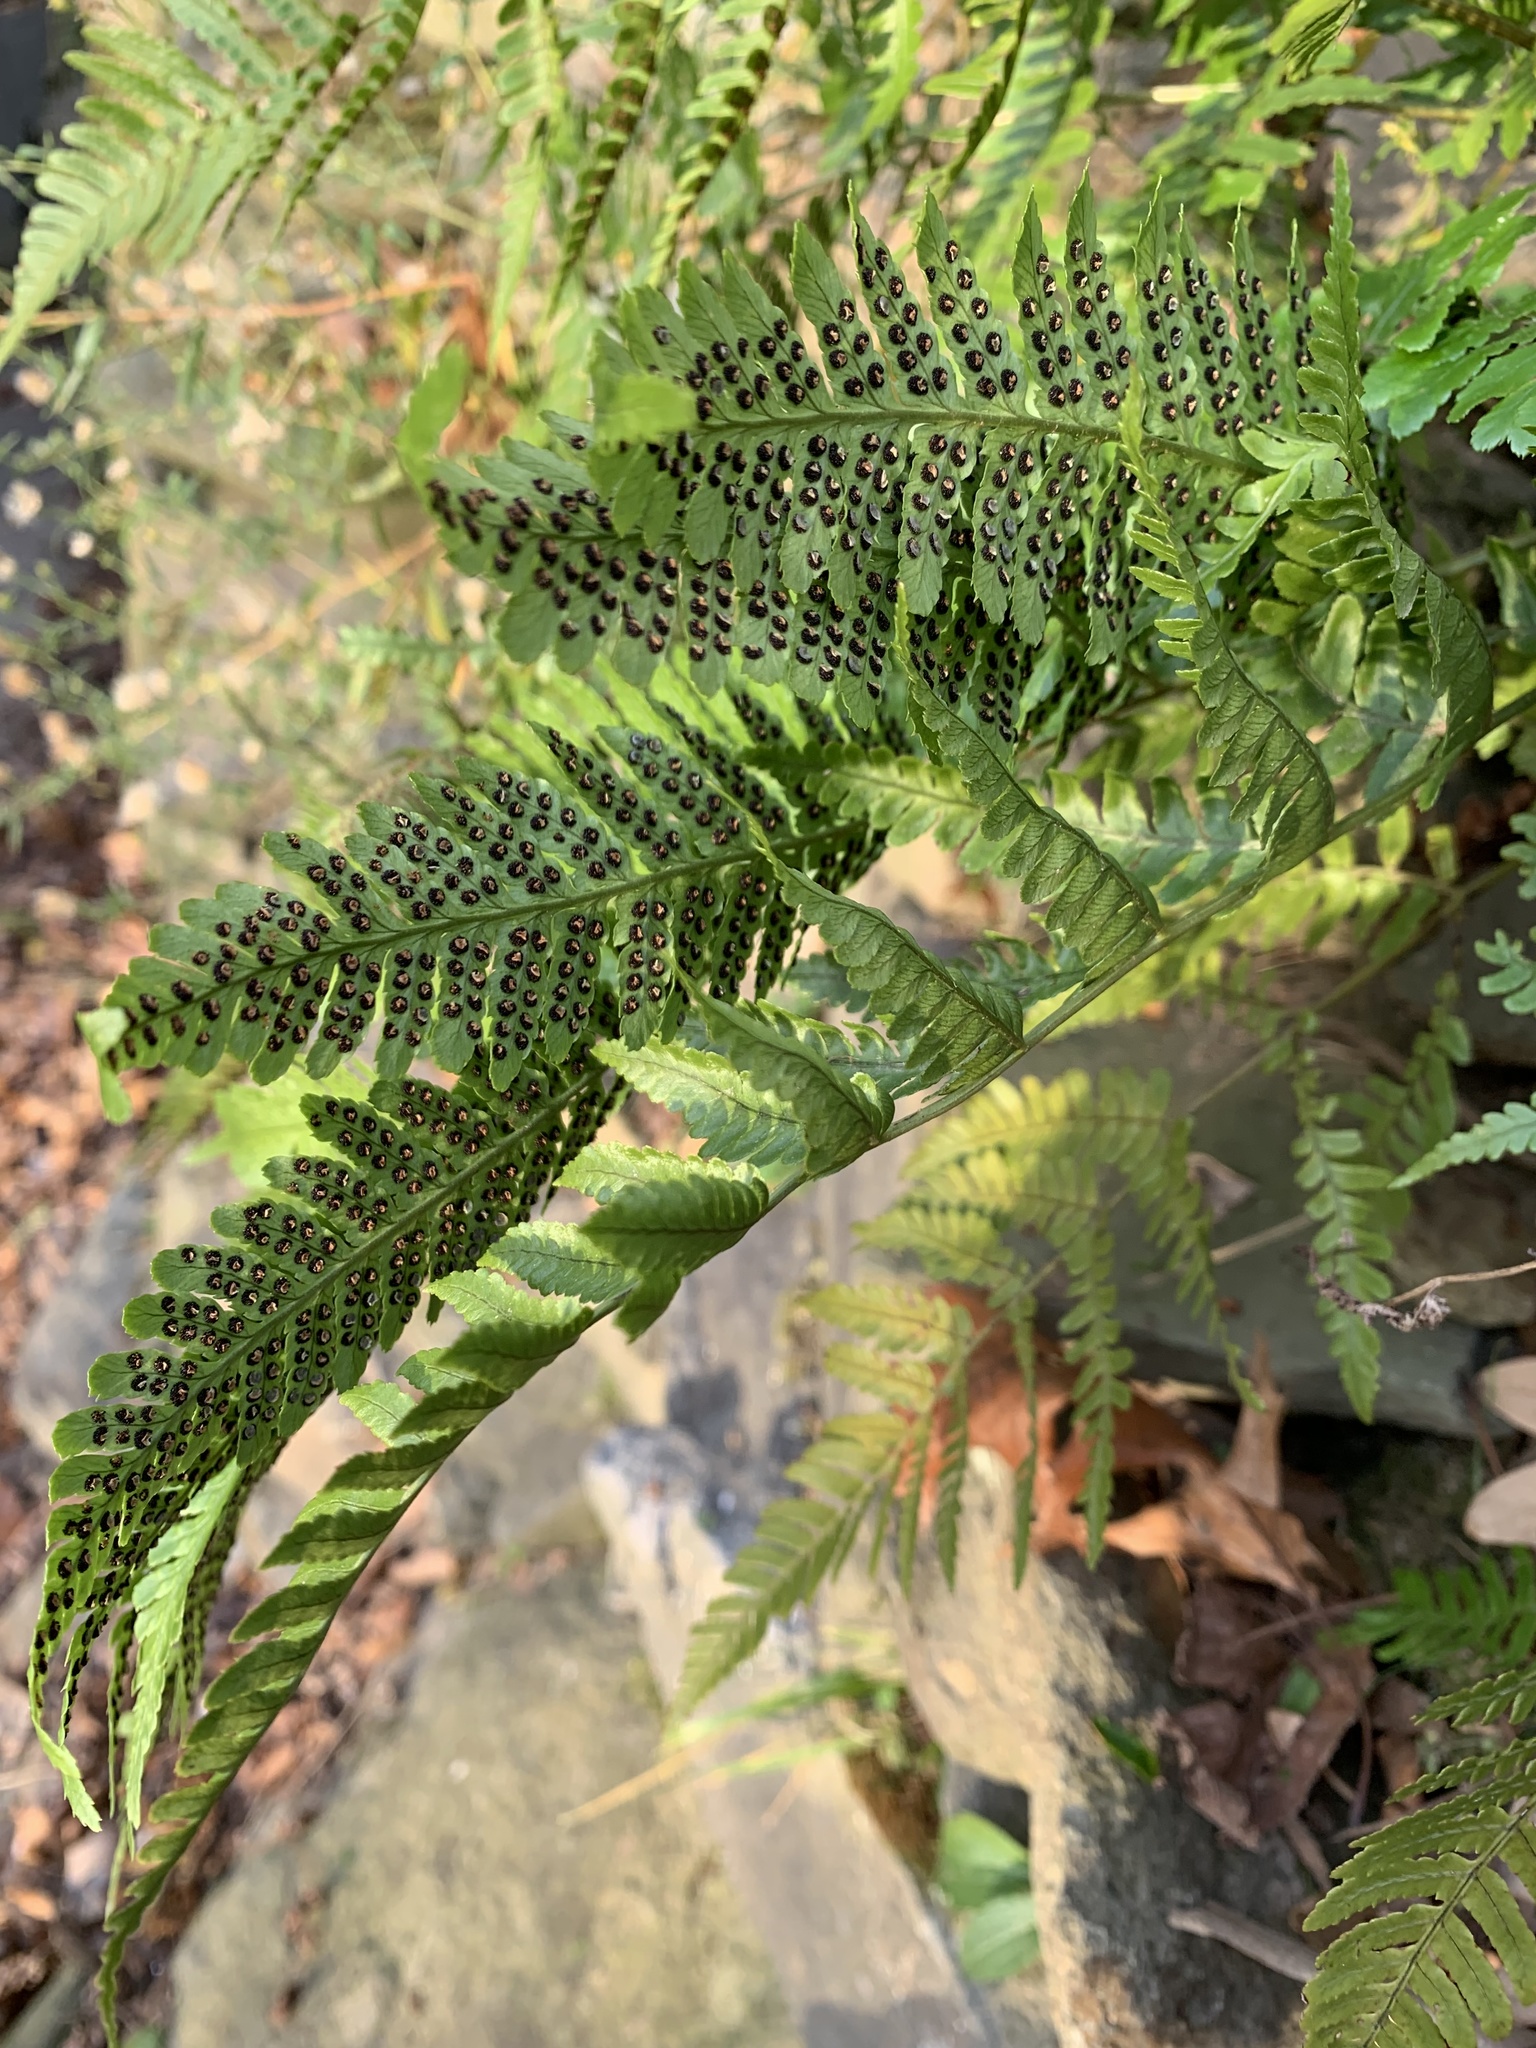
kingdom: Plantae
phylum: Tracheophyta
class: Polypodiopsida
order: Polypodiales
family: Dryopteridaceae
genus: Dryopteris
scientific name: Dryopteris erythrosora
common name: Autumn fern
